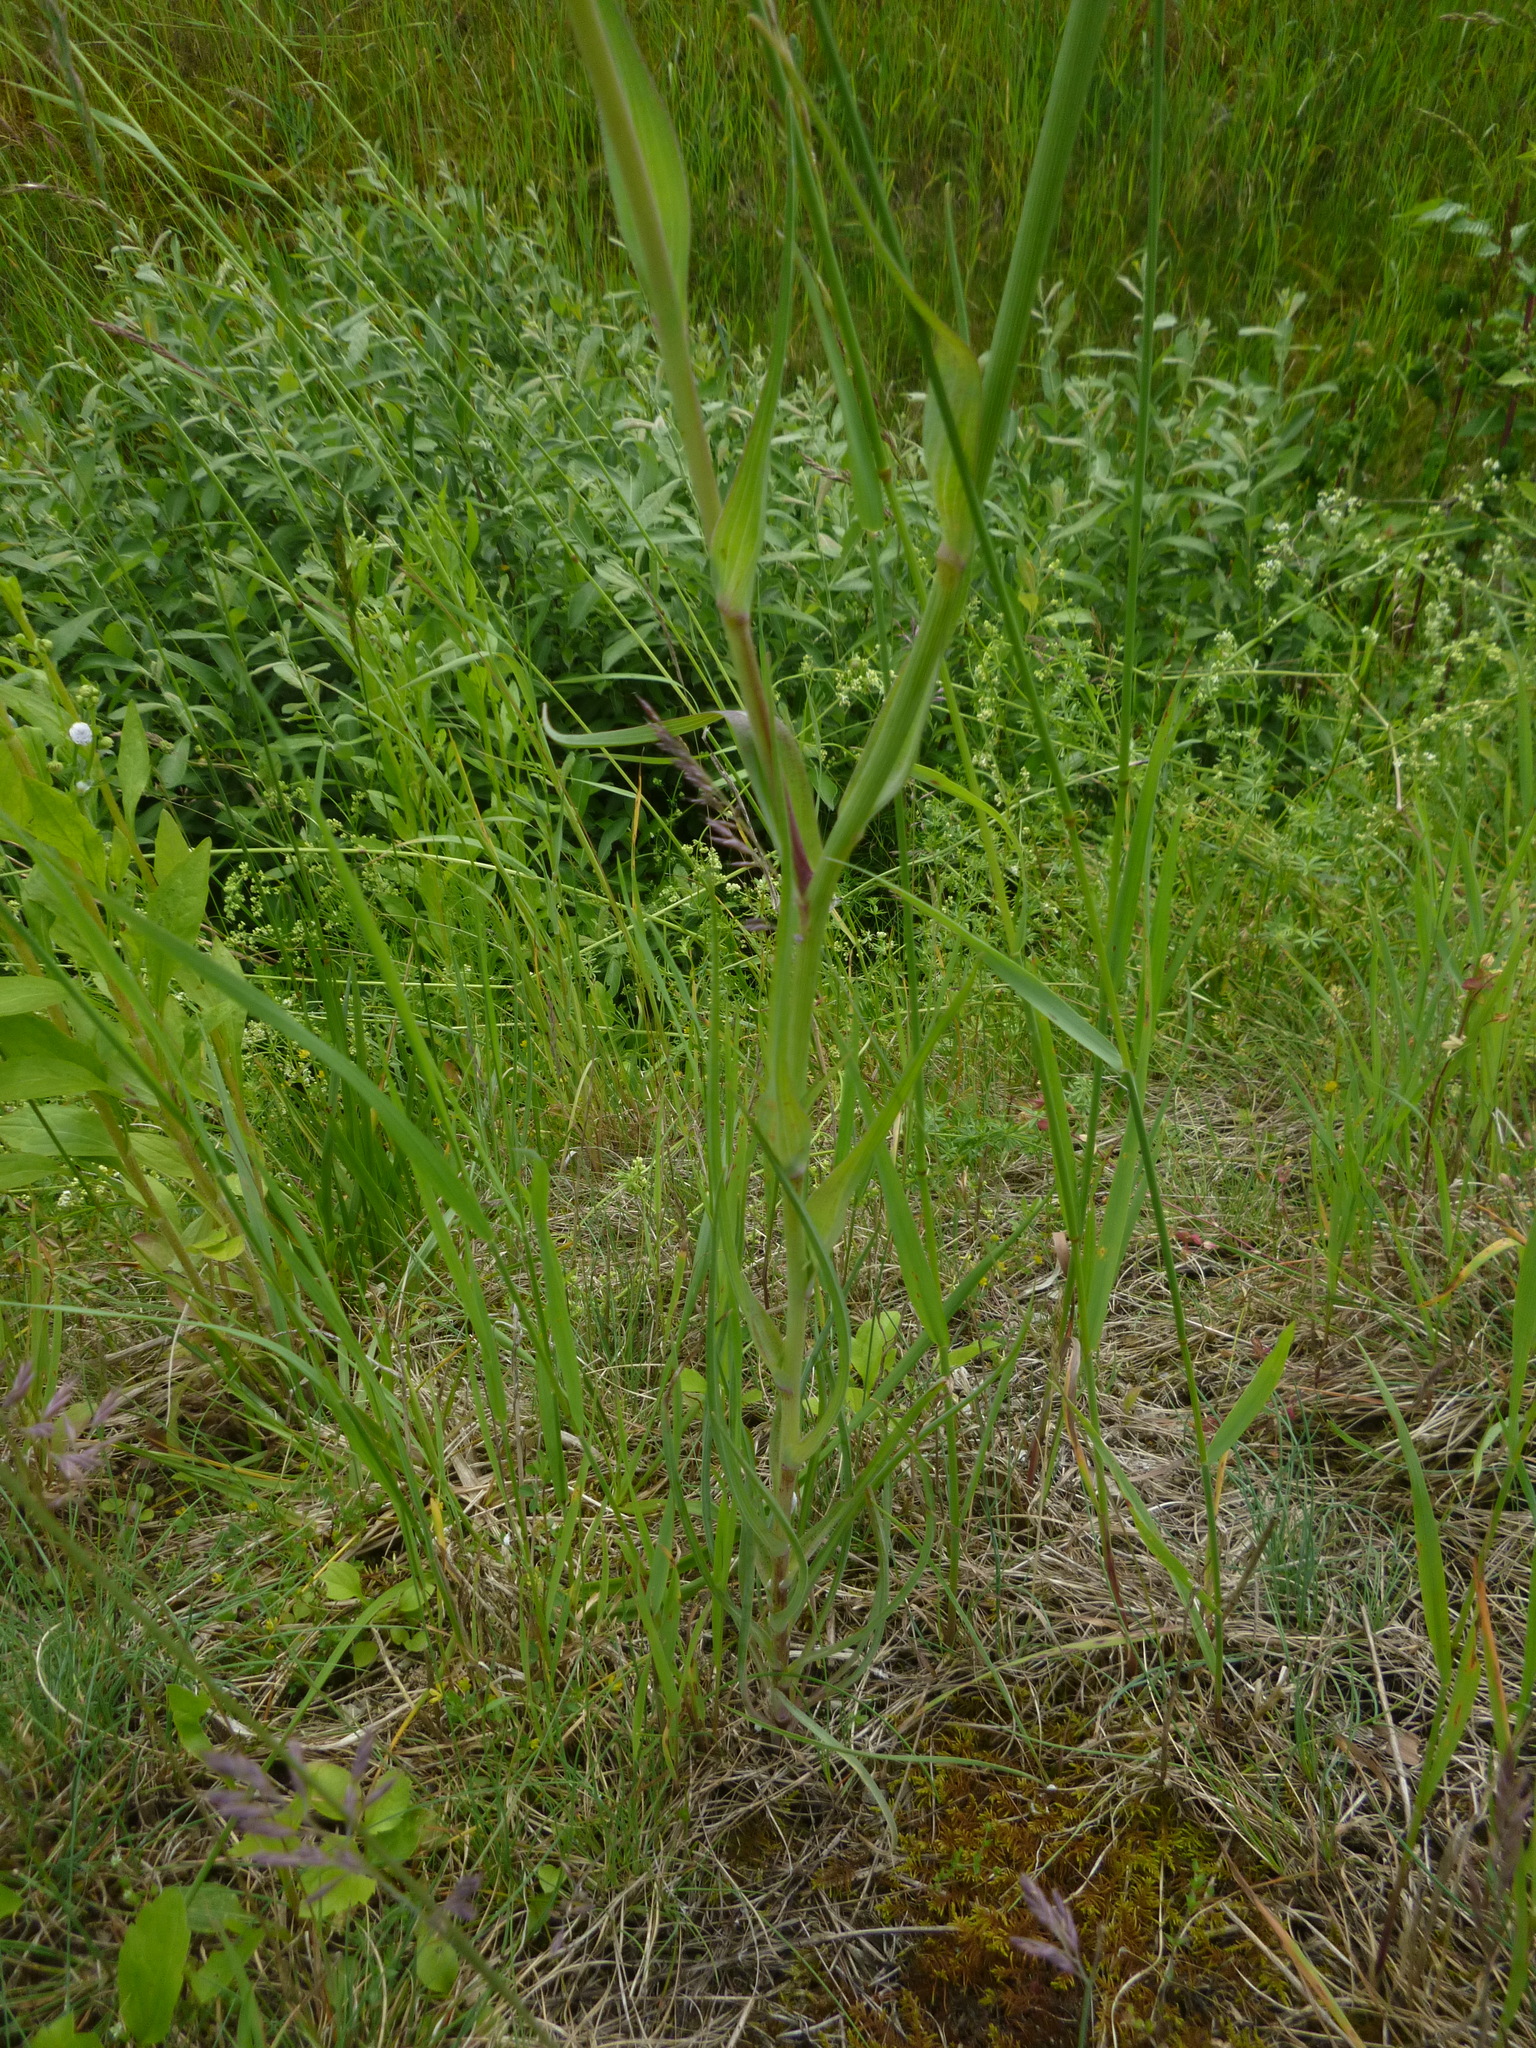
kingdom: Plantae
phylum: Tracheophyta
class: Magnoliopsida
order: Asterales
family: Asteraceae
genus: Tragopogon
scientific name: Tragopogon dubius
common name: Yellow salsify
